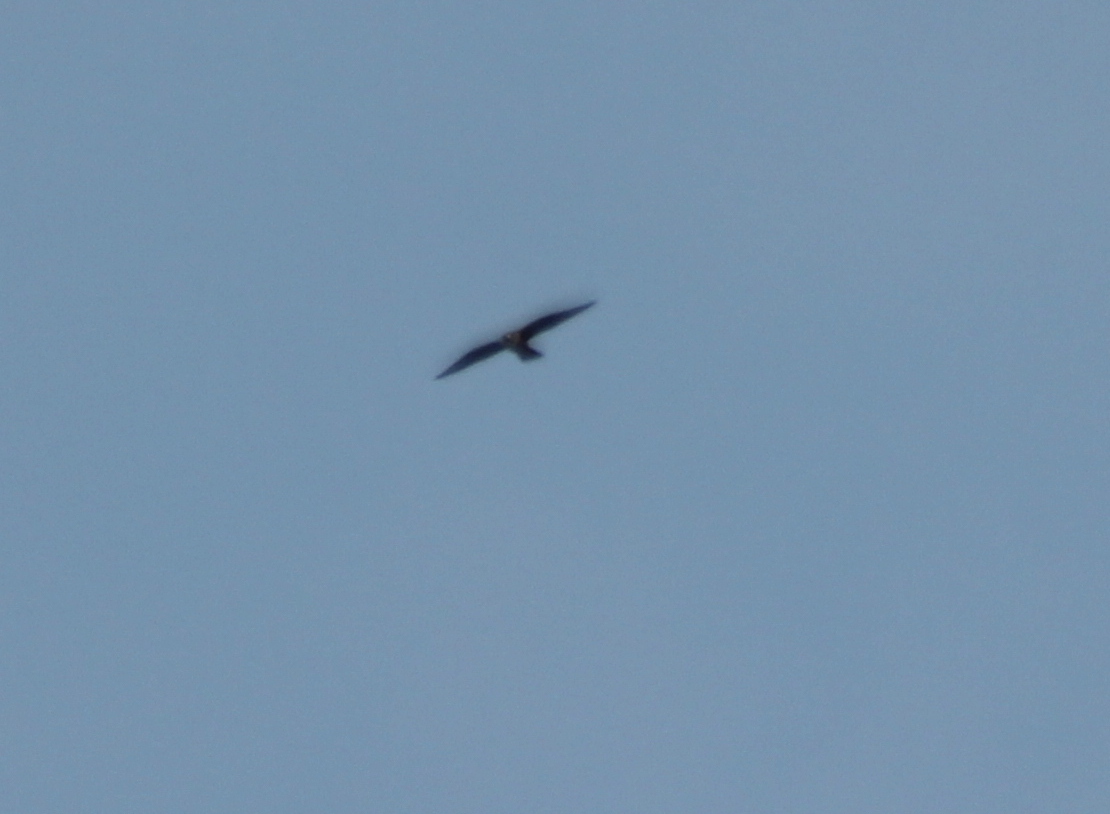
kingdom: Animalia
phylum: Chordata
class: Aves
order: Falconiformes
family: Falconidae
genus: Falco
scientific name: Falco peregrinus
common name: Peregrine falcon
